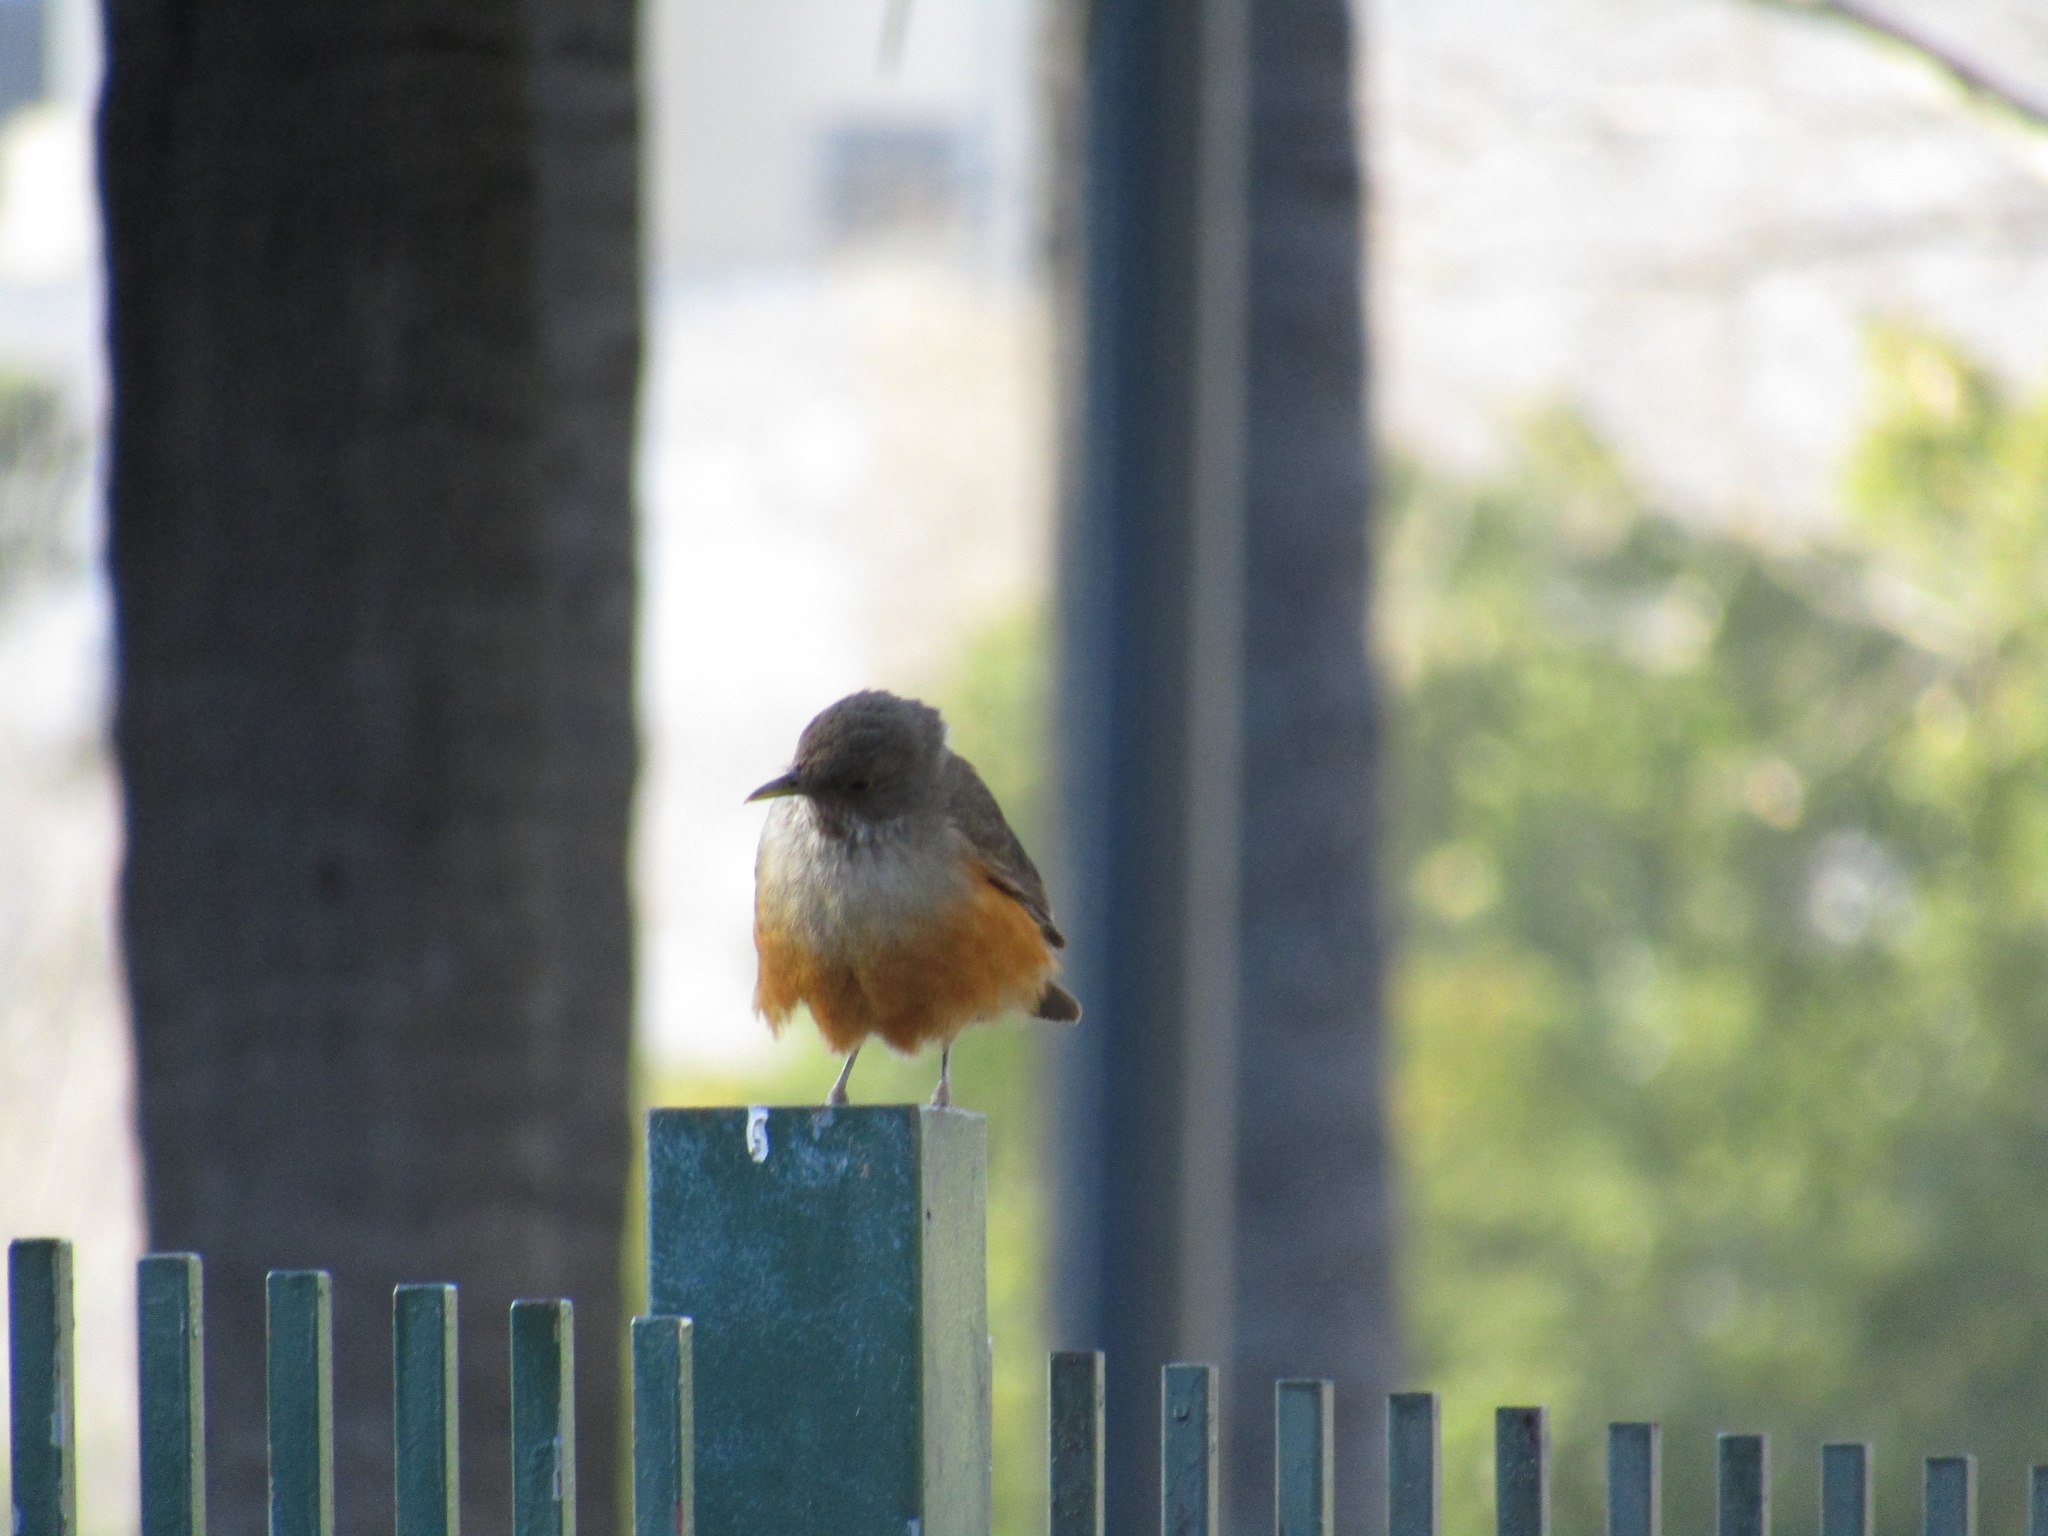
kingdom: Animalia
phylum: Chordata
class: Aves
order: Passeriformes
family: Turdidae
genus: Turdus
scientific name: Turdus rufiventris
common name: Rufous-bellied thrush
